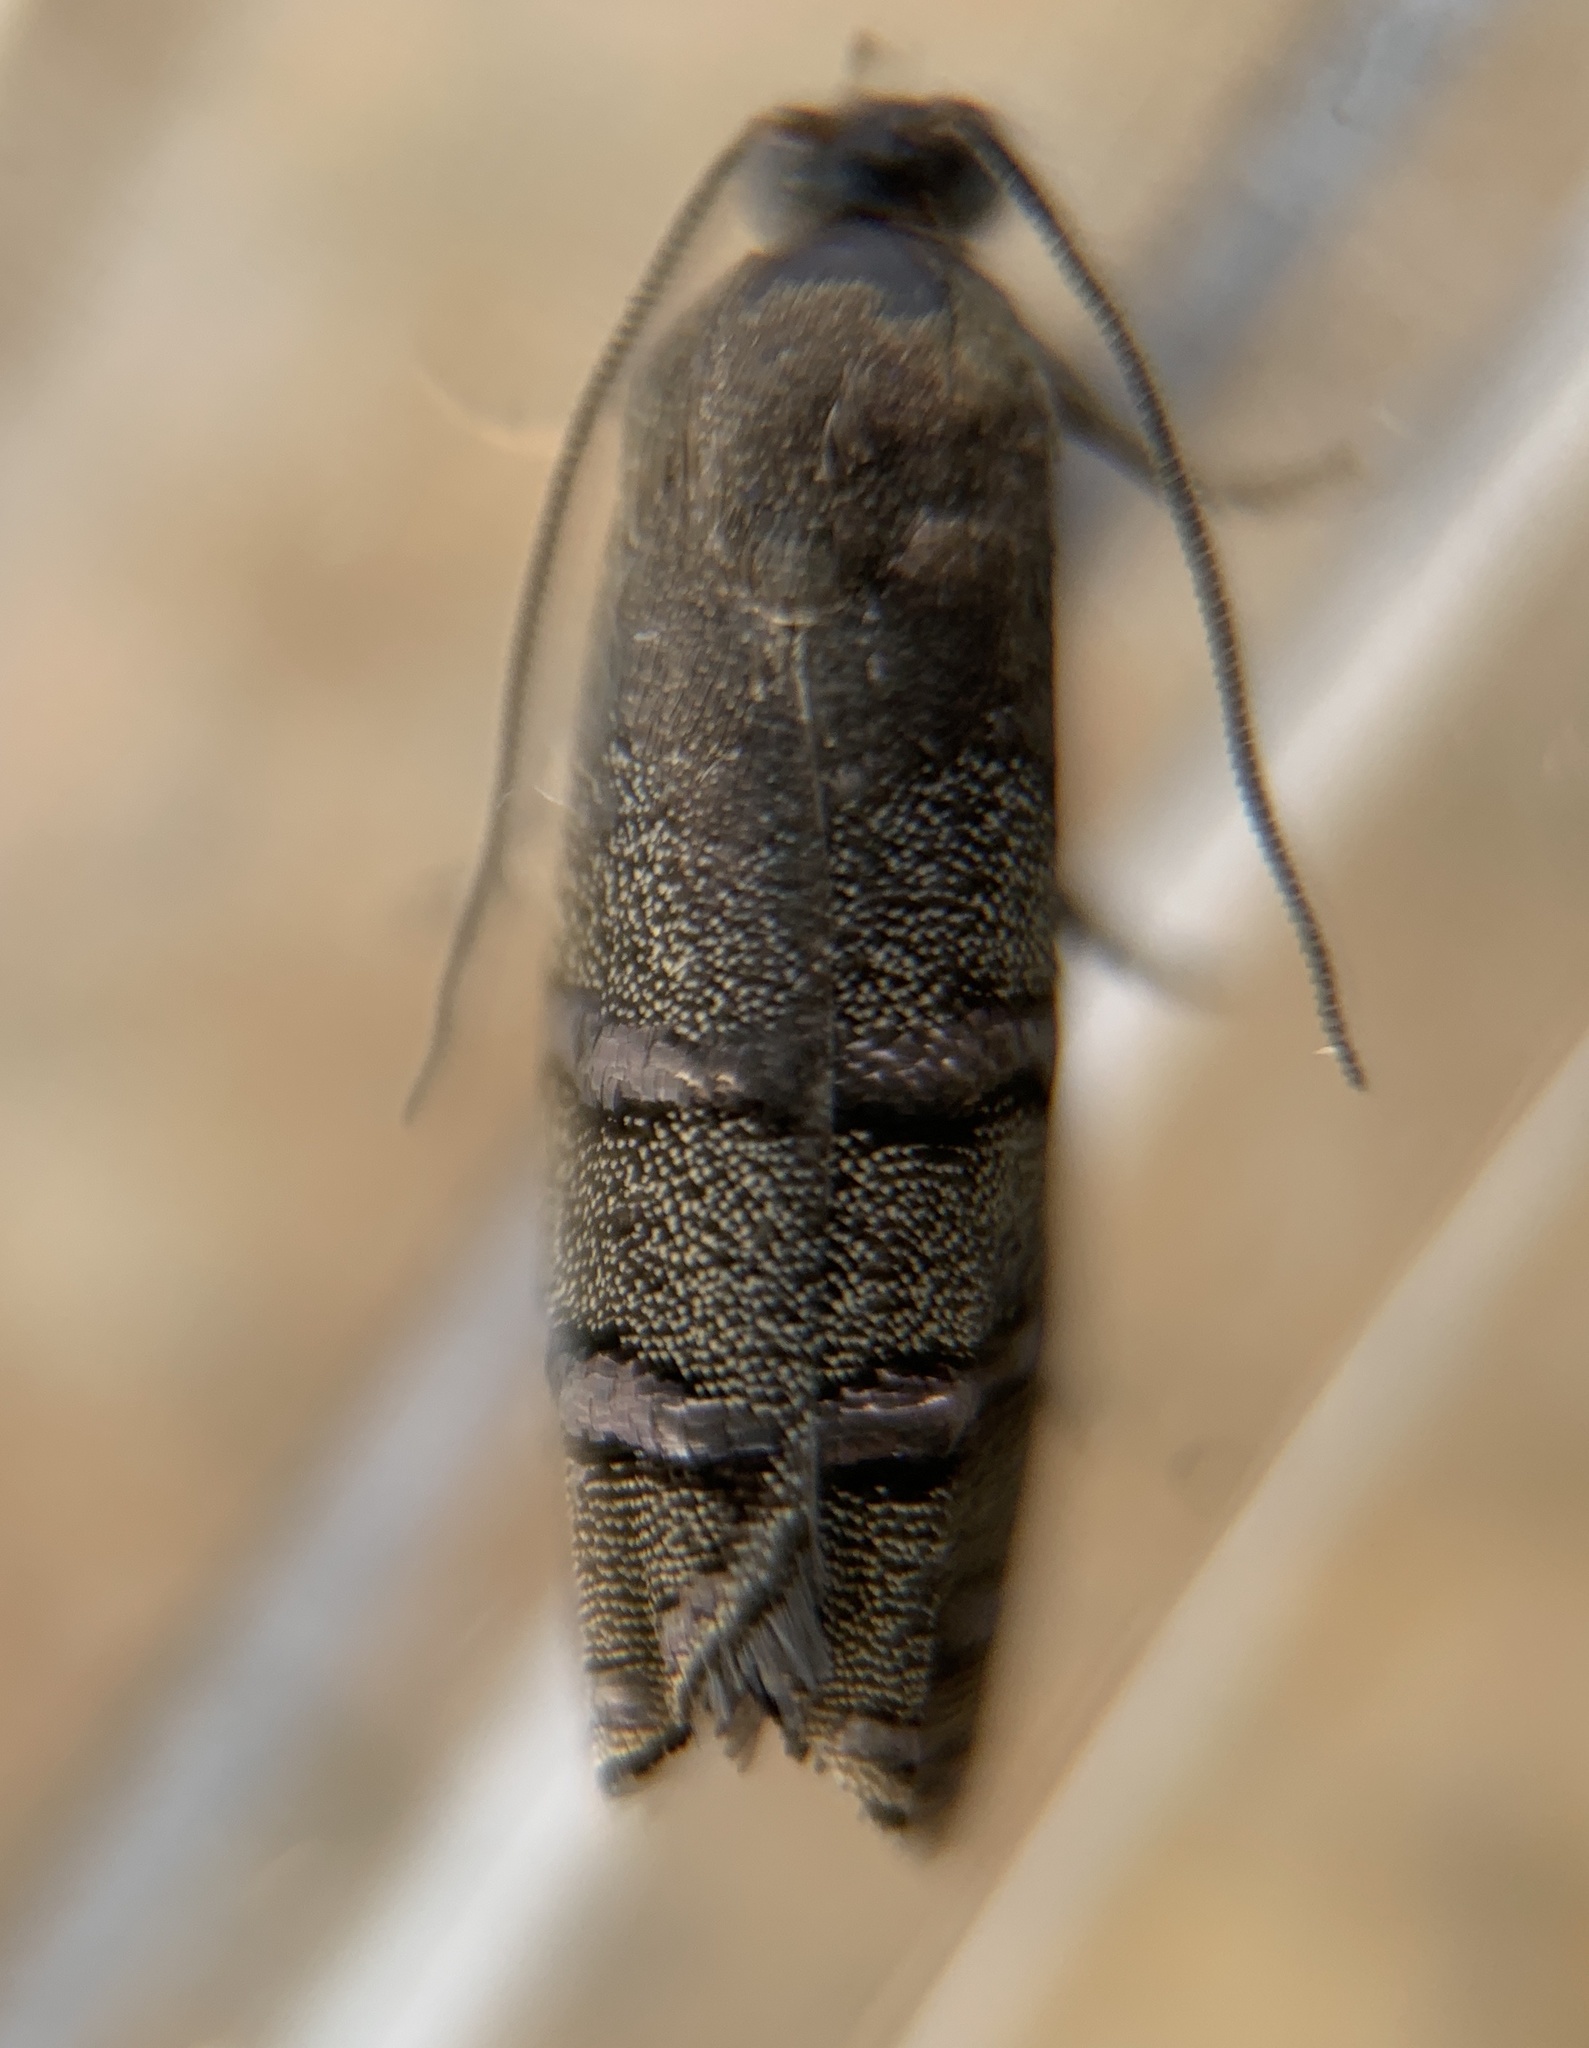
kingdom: Animalia
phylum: Arthropoda
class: Insecta
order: Lepidoptera
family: Tortricidae
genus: Cydia
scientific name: Cydia toreuta
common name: Eastern pine seedworm moth
